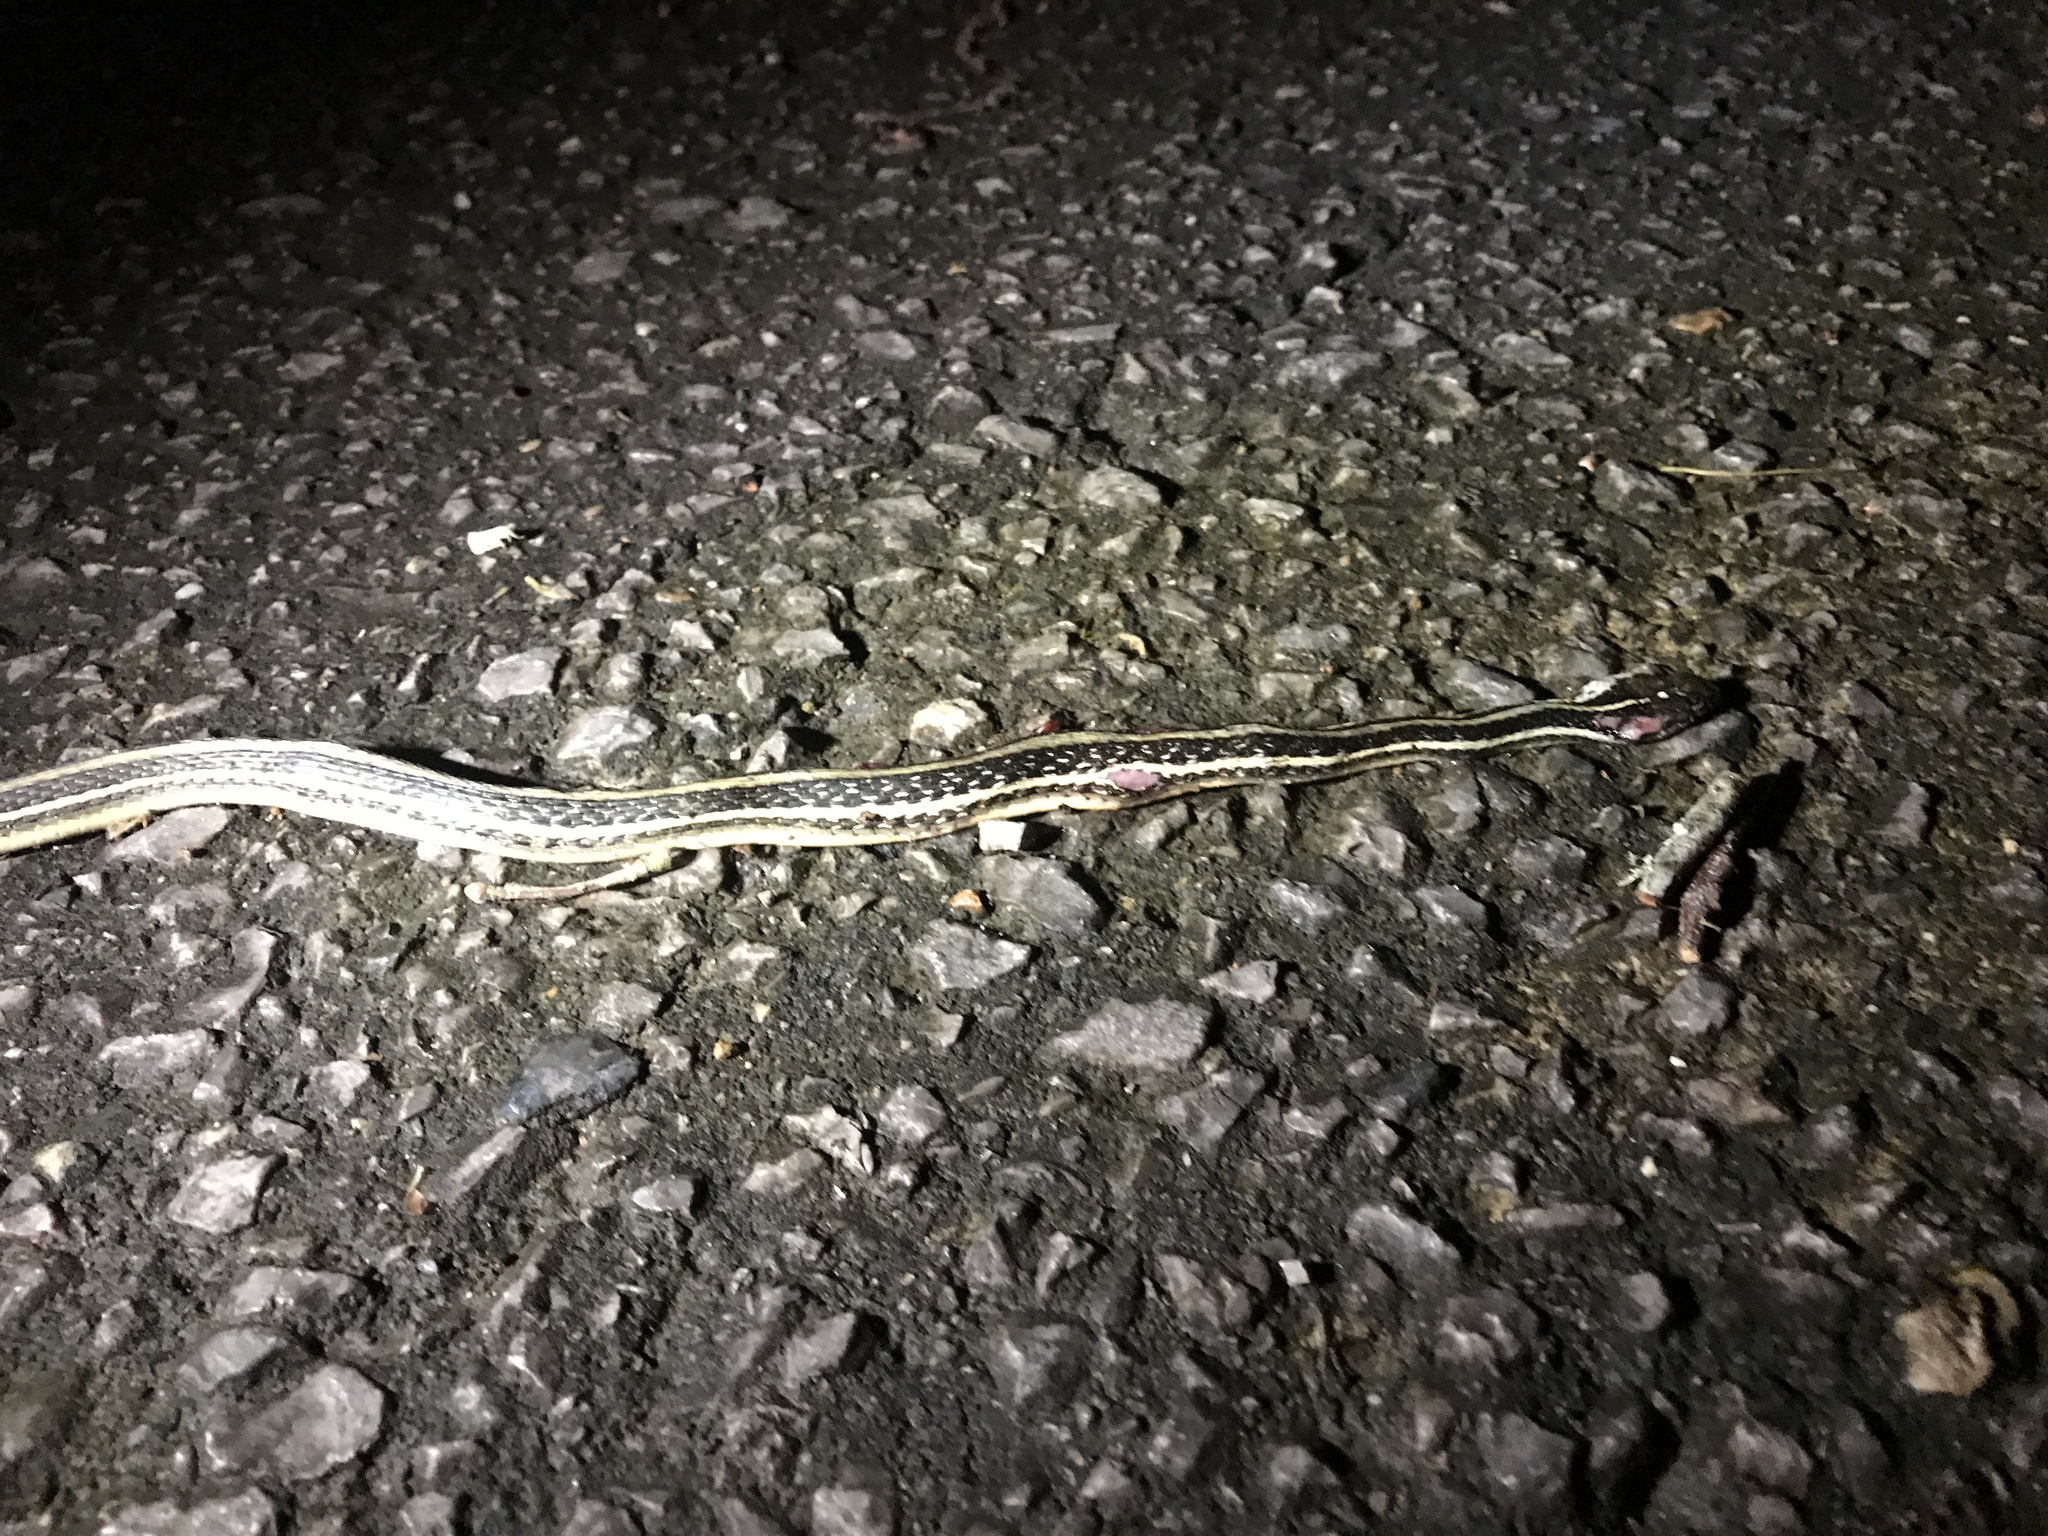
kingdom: Animalia
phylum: Chordata
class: Squamata
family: Colubridae
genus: Thamnophis
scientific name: Thamnophis proximus
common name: Western ribbon snake
